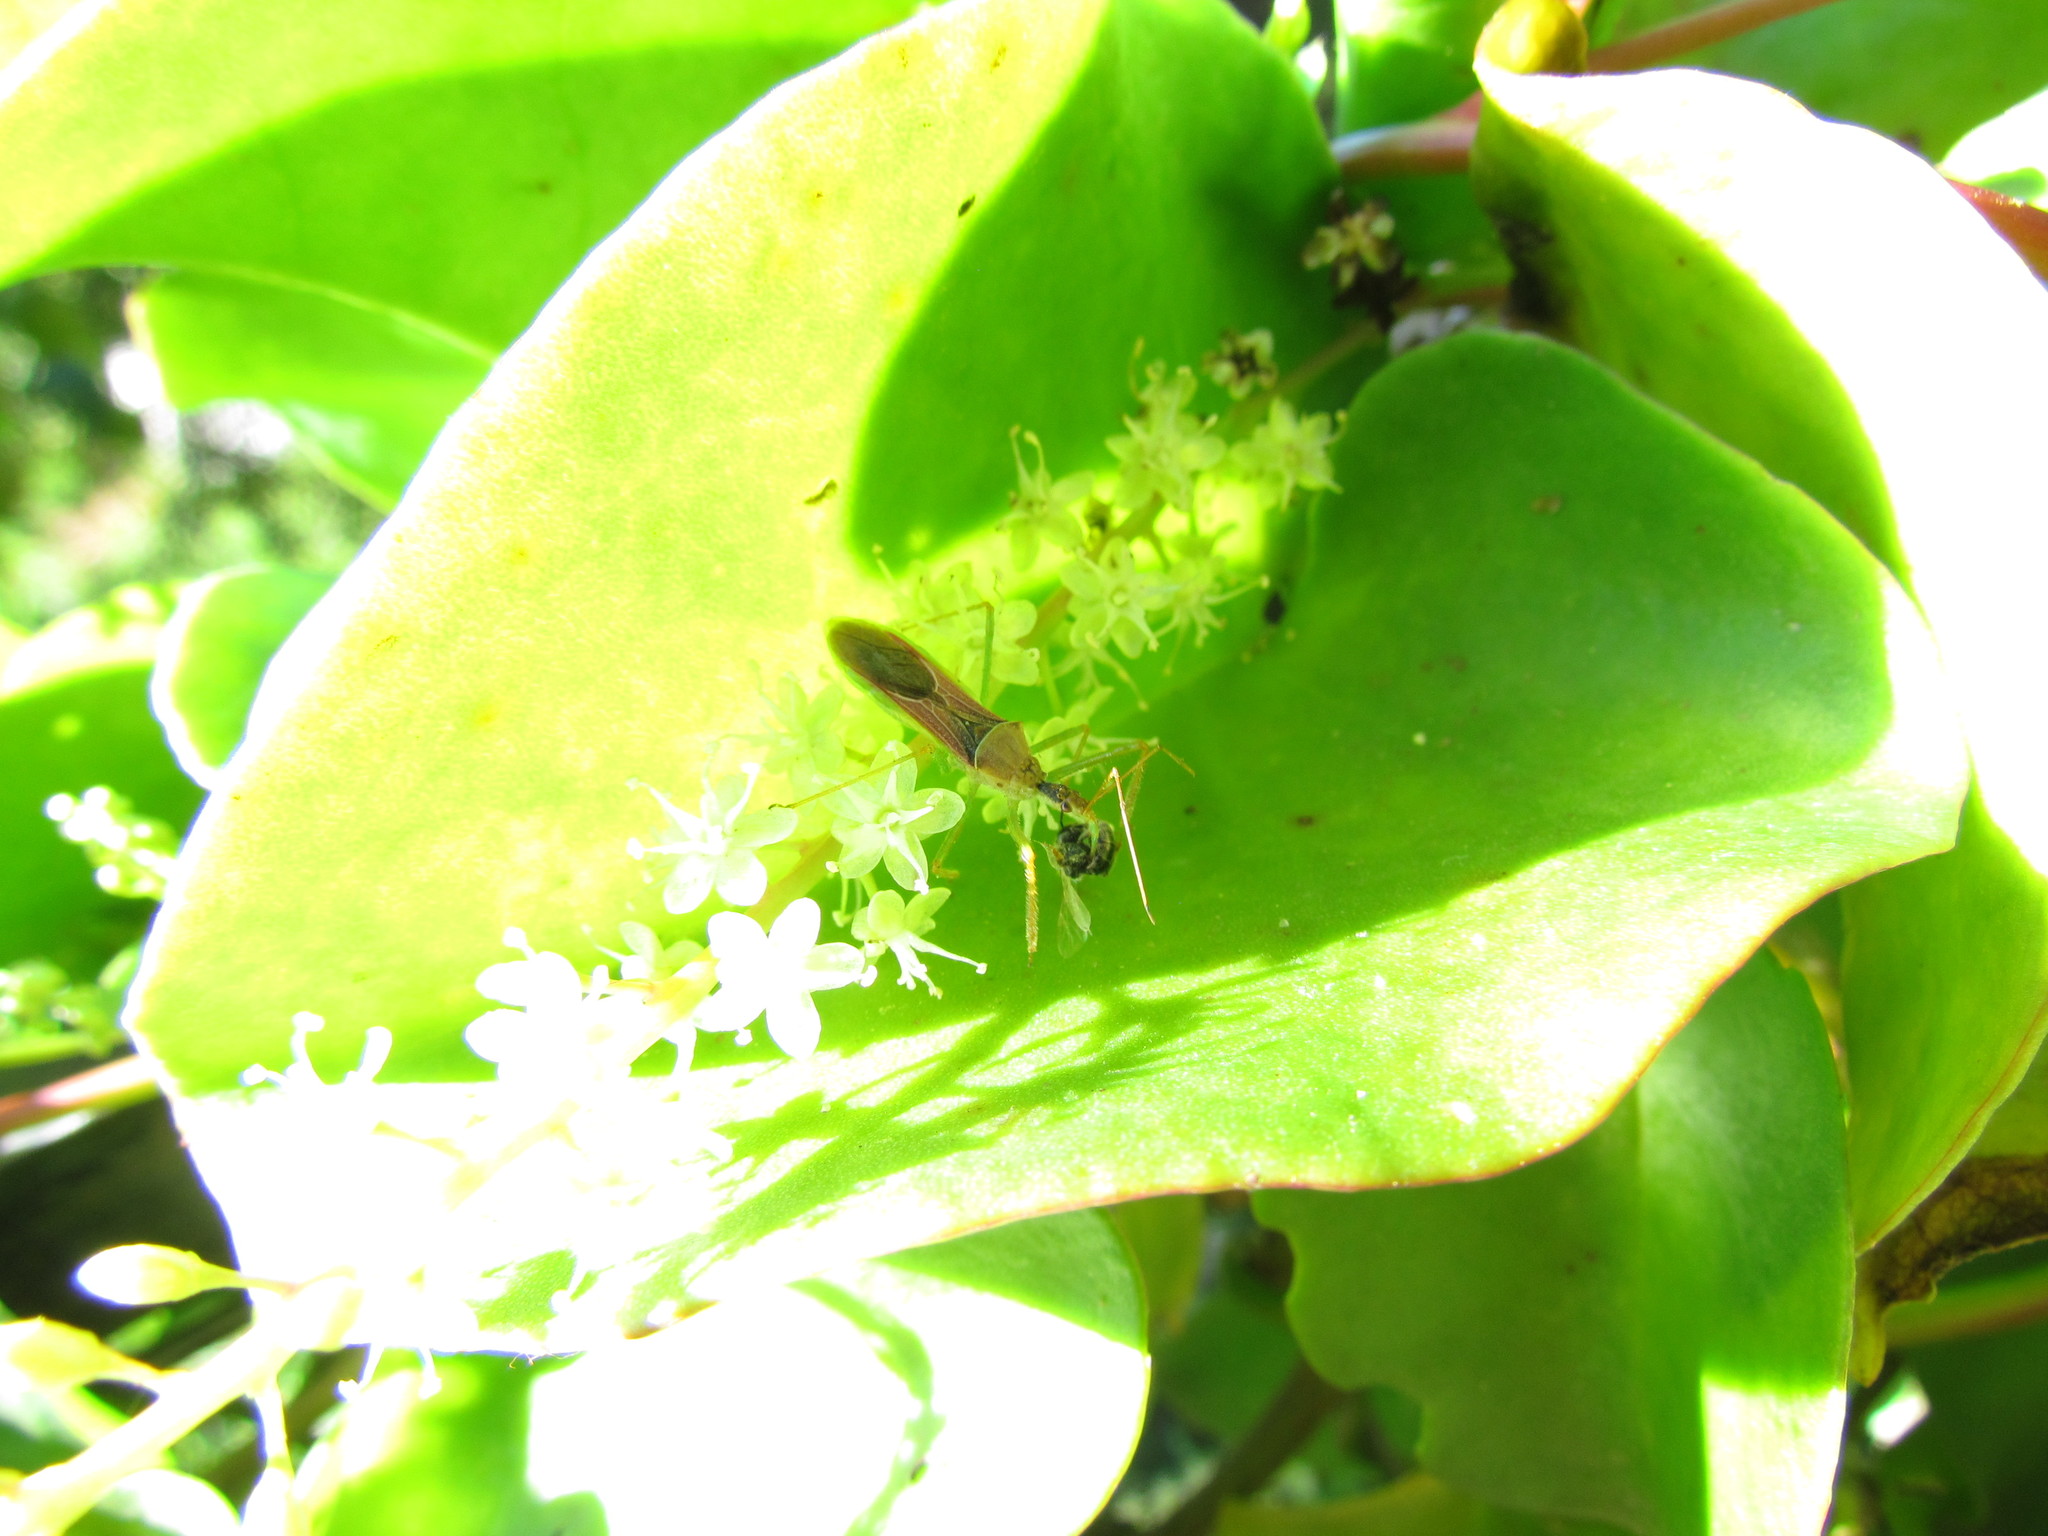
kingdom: Animalia
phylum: Arthropoda
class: Insecta
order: Hemiptera
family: Reduviidae
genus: Zelus
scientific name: Zelus renardii
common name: Assassin bug
